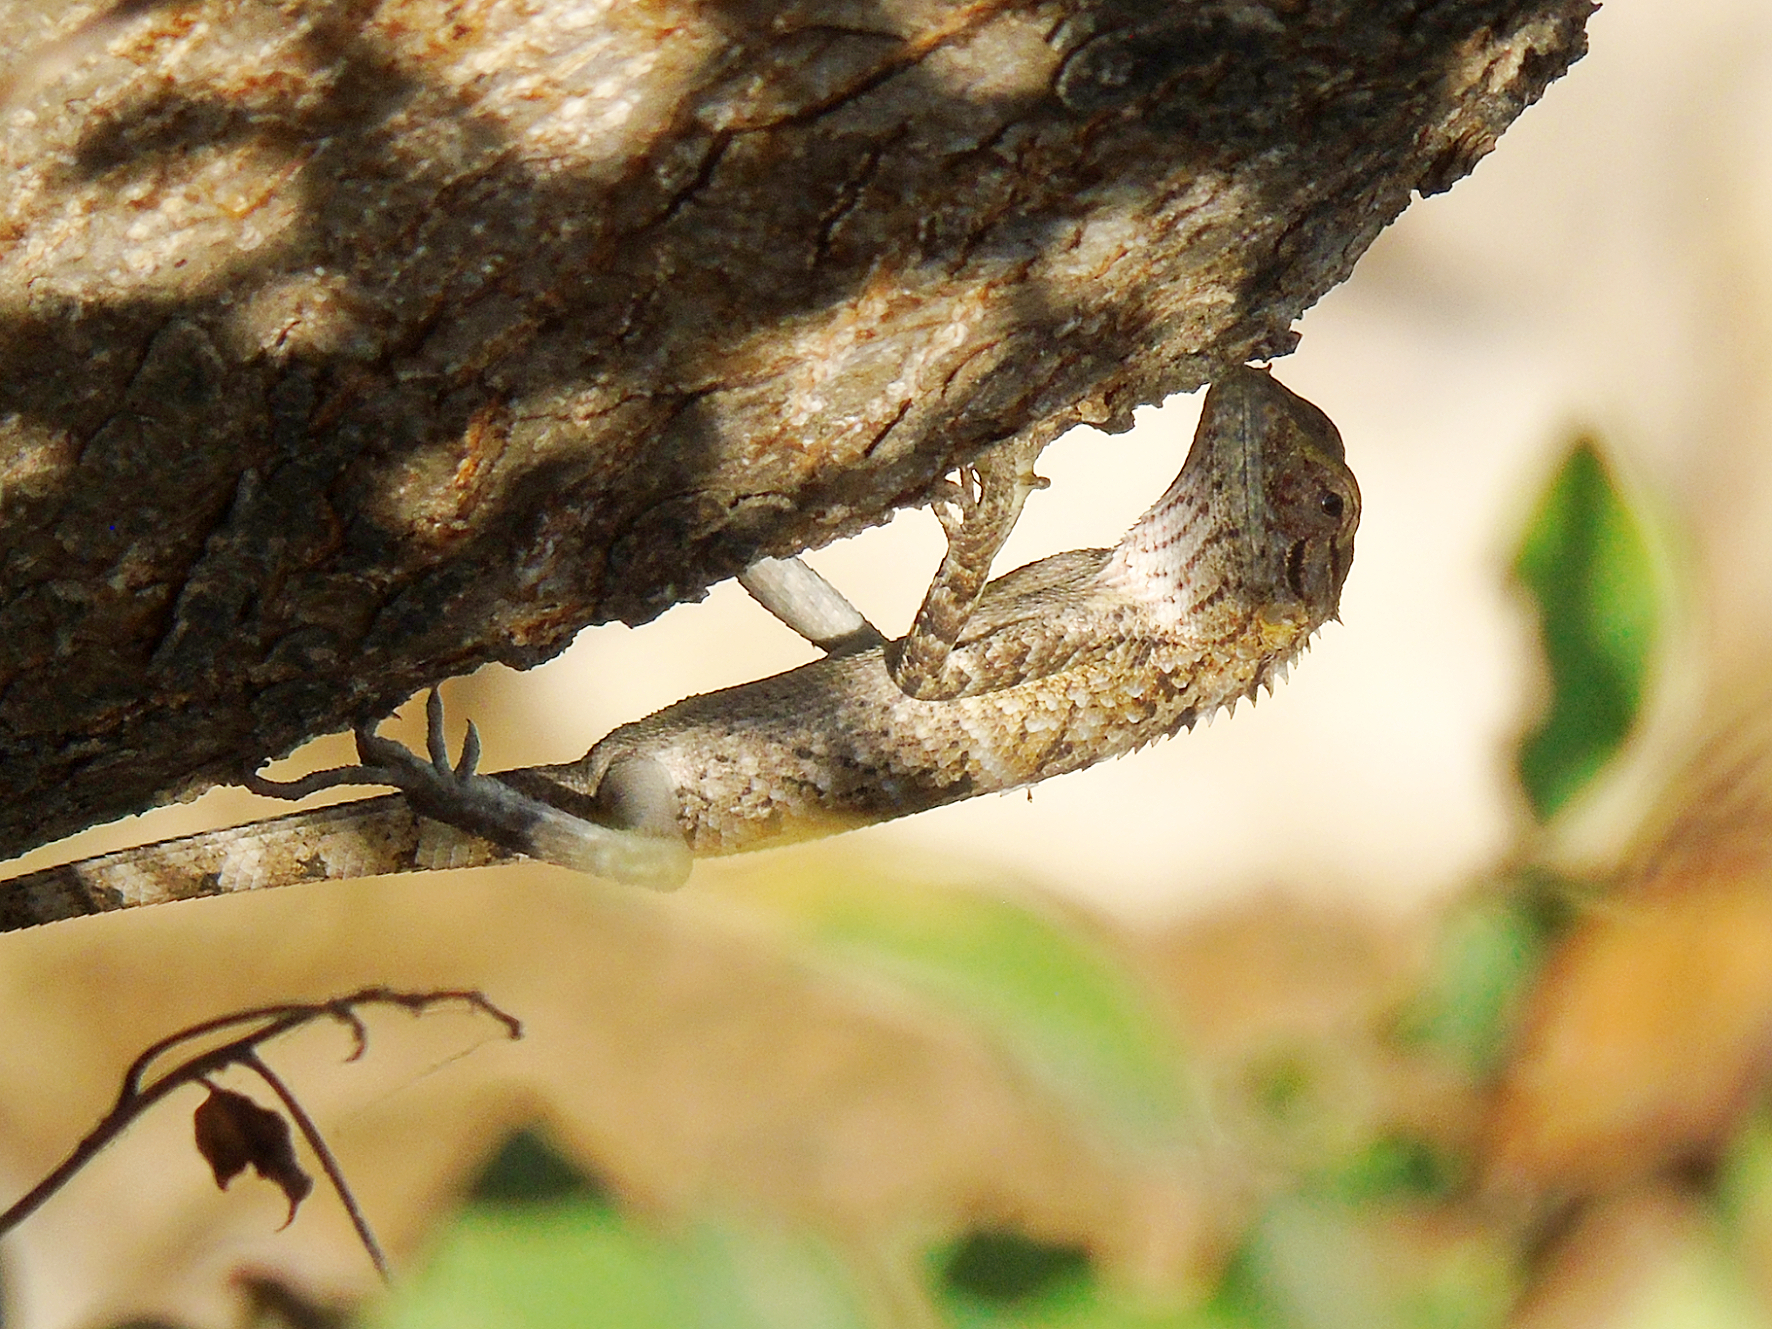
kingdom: Animalia
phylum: Chordata
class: Squamata
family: Agamidae
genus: Calotes
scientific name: Calotes versicolor
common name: Oriental garden lizard
